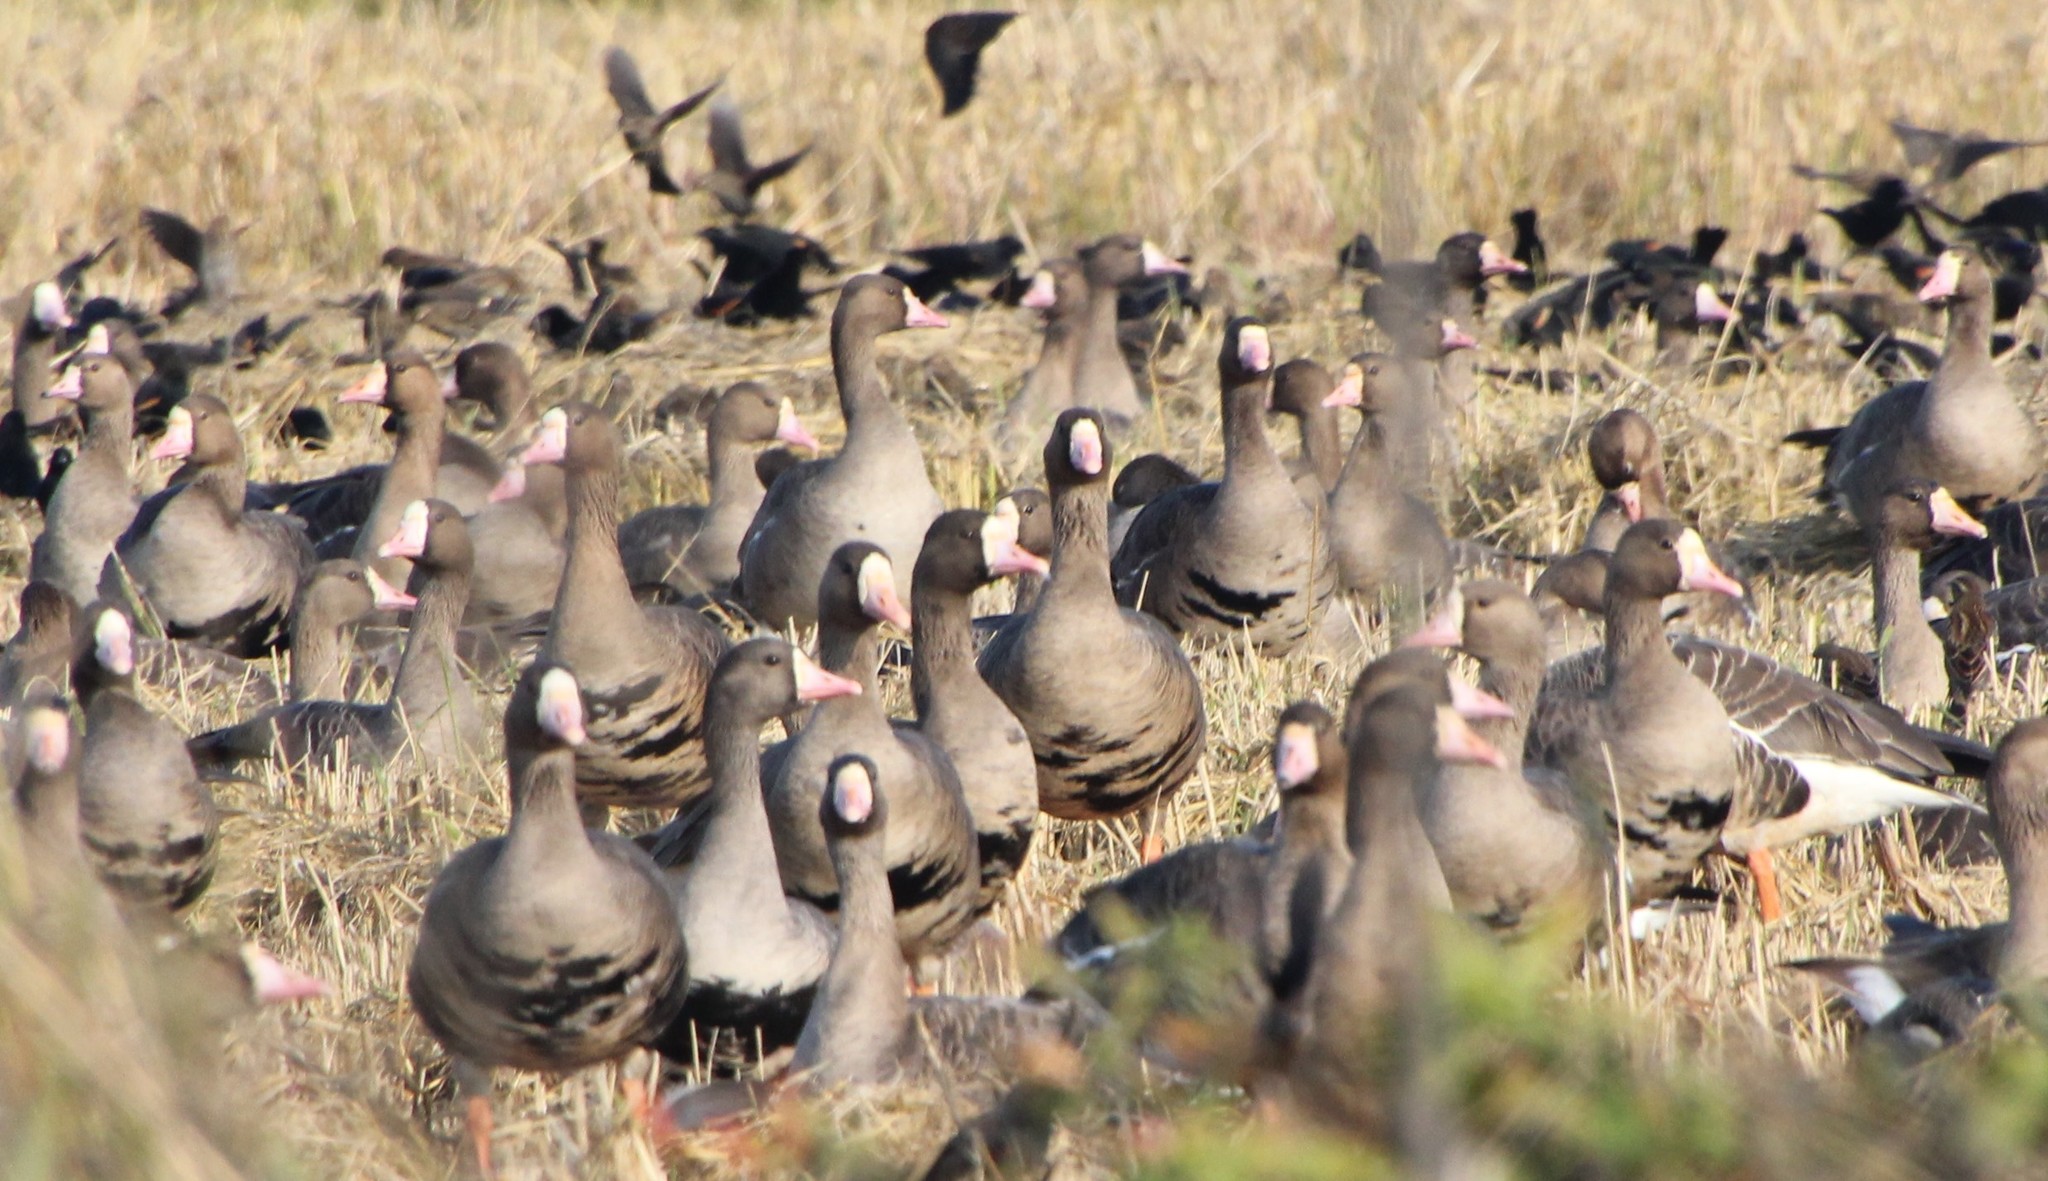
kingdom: Animalia
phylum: Chordata
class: Aves
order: Anseriformes
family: Anatidae
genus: Anser
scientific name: Anser albifrons
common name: Greater white-fronted goose
